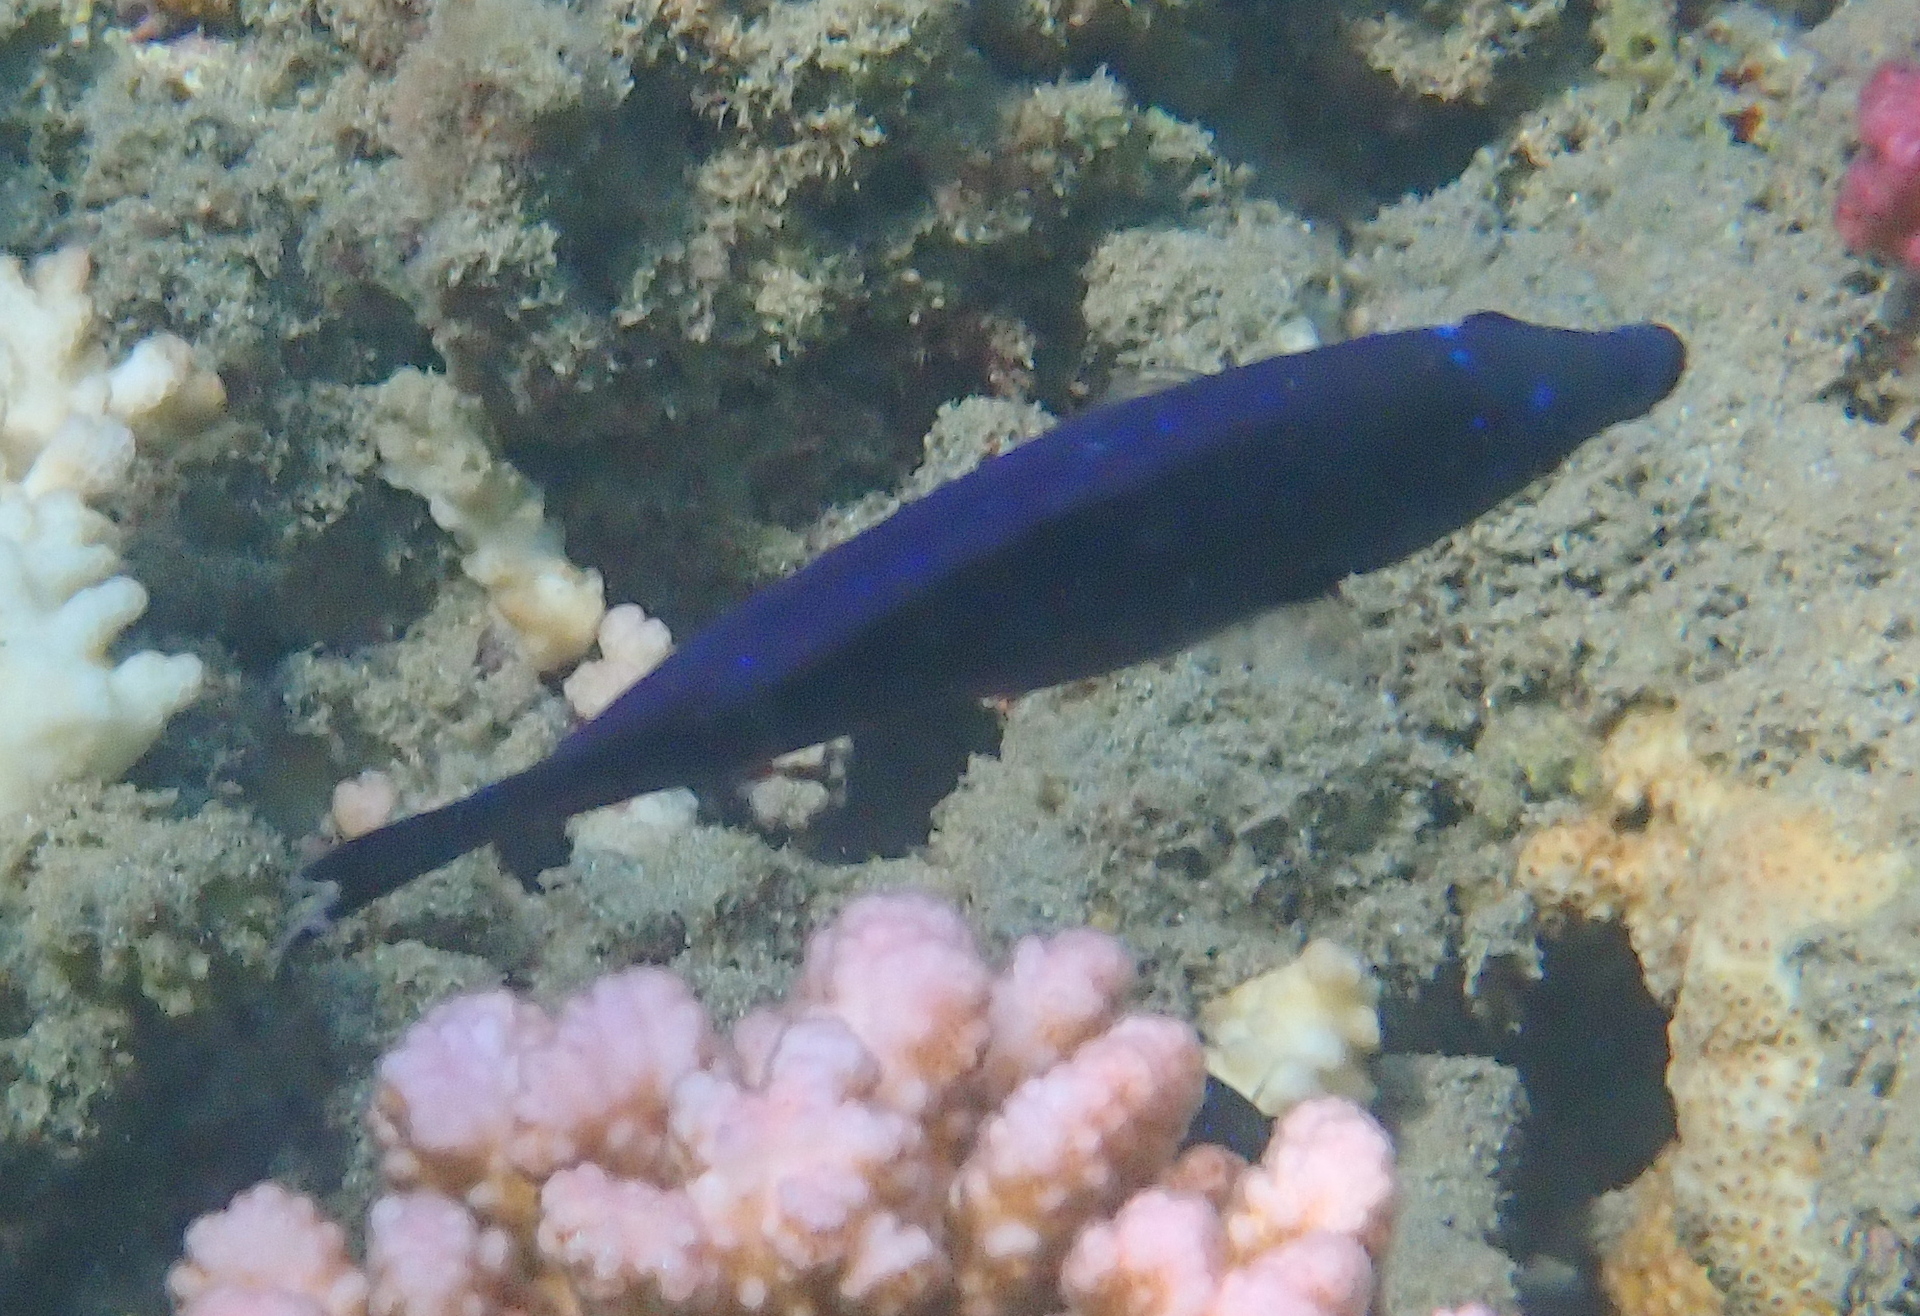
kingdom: Animalia
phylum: Chordata
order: Perciformes
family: Labridae
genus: Larabicus
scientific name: Larabicus quadrilineatus
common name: Fourline wrasse
